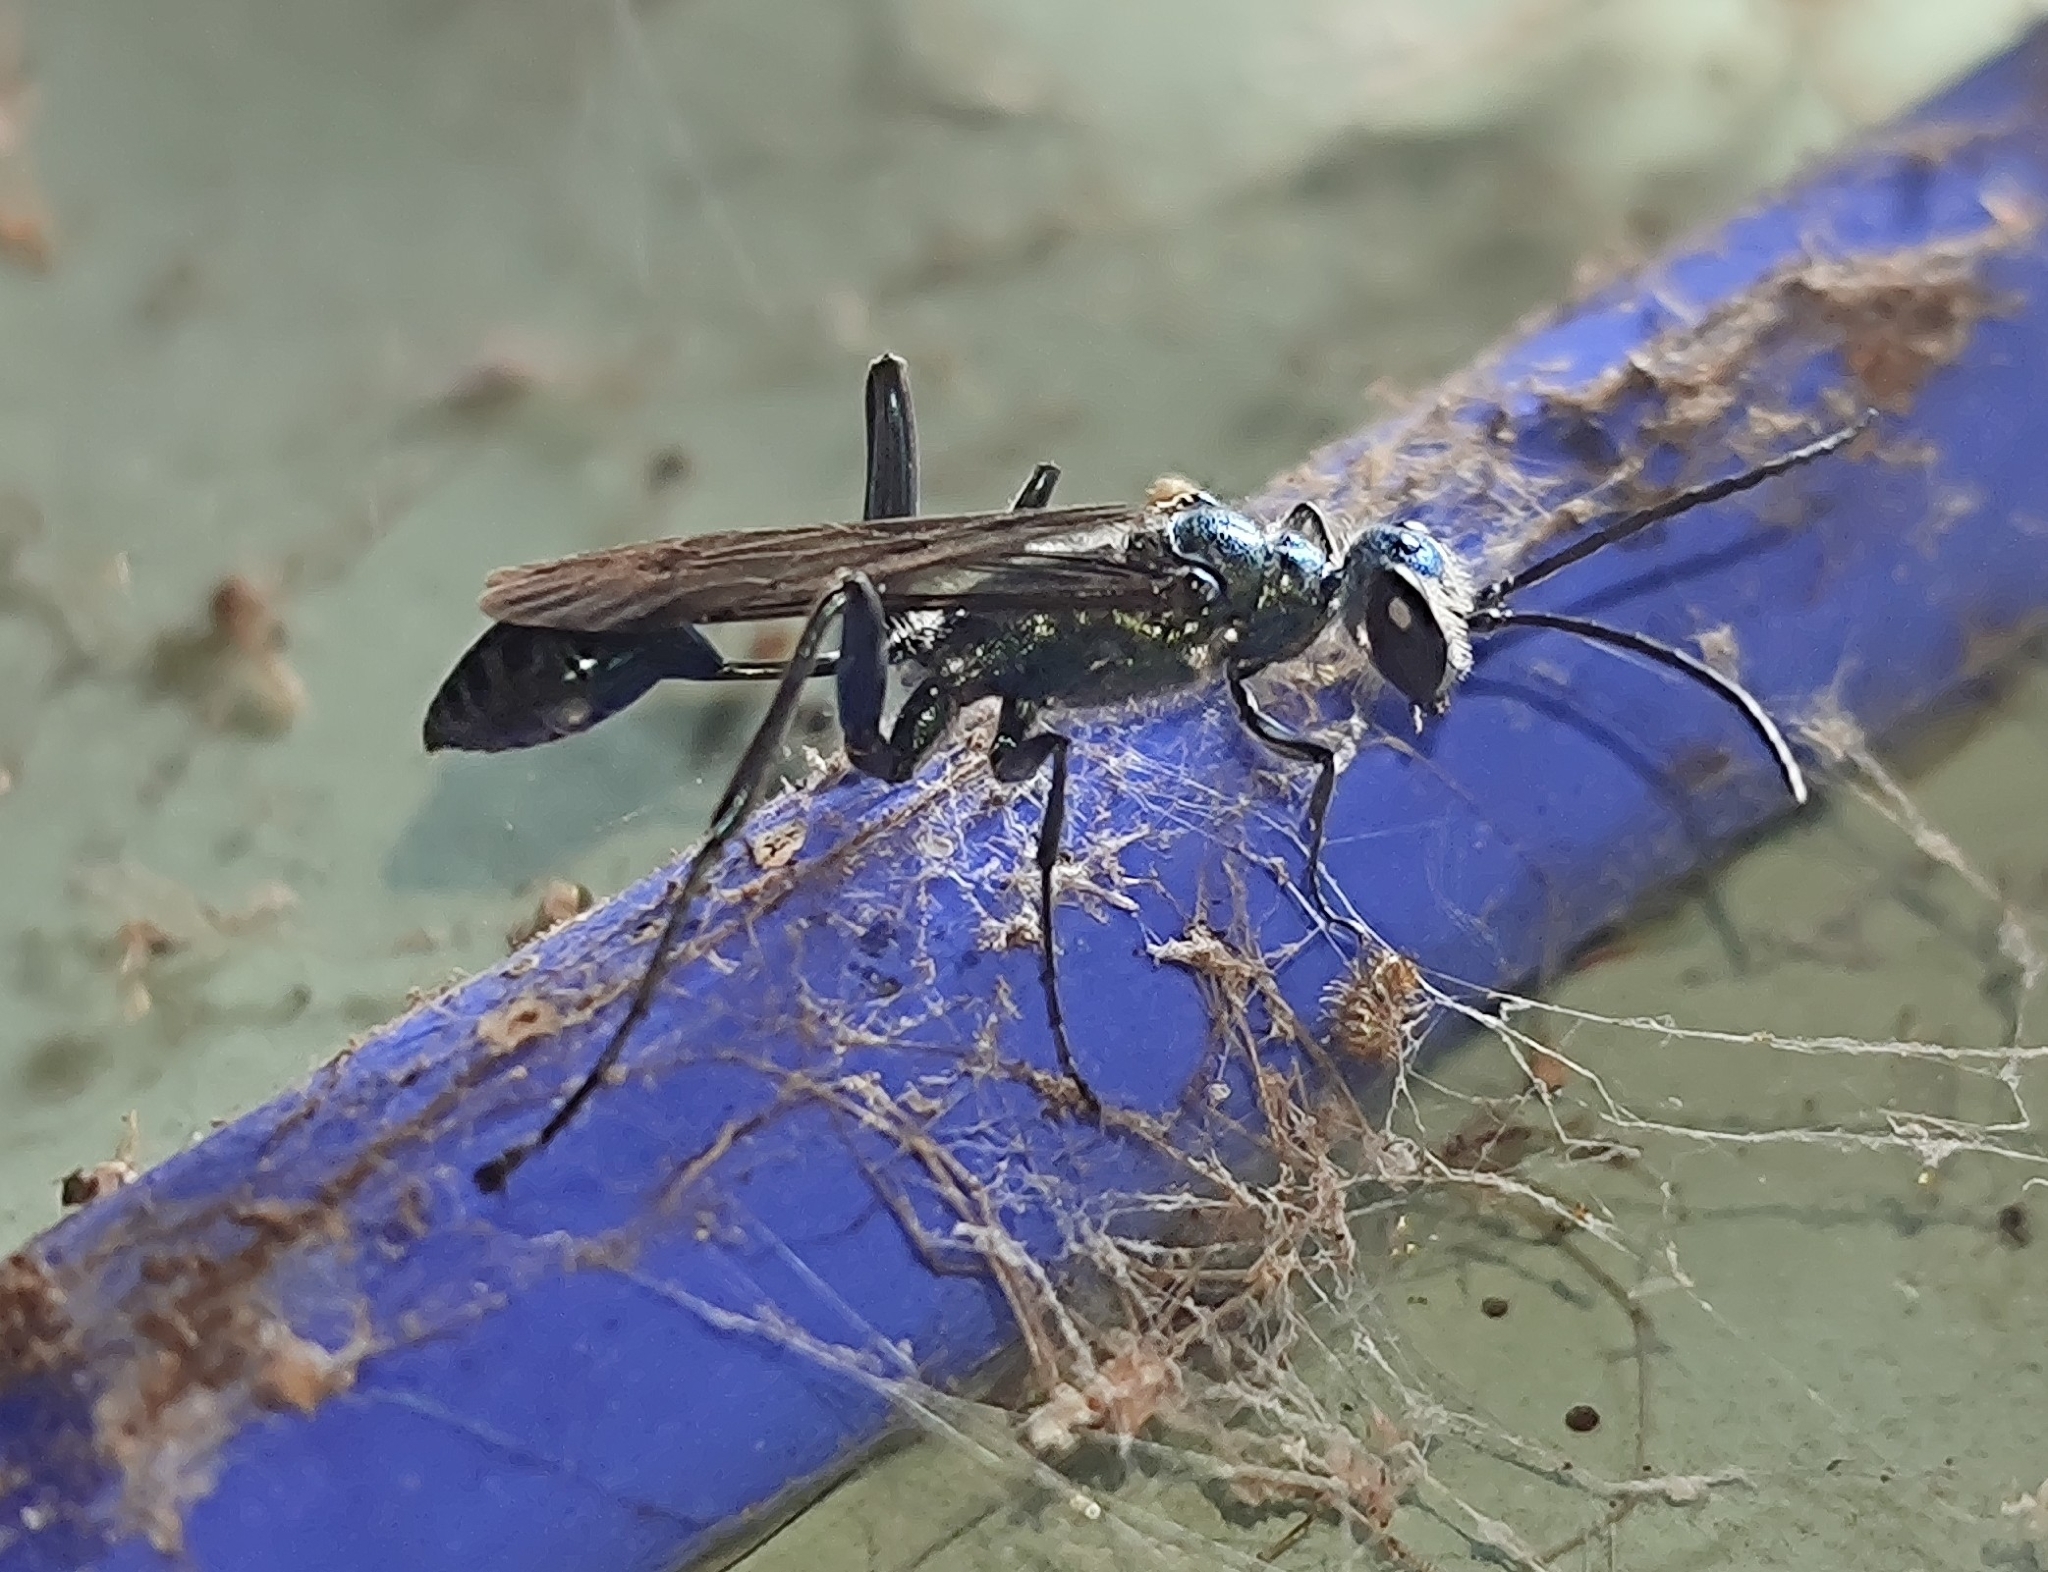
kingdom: Animalia
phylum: Arthropoda
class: Insecta
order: Hymenoptera
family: Sphecidae
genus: Chalybion
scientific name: Chalybion bengalense
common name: Mud dauber
